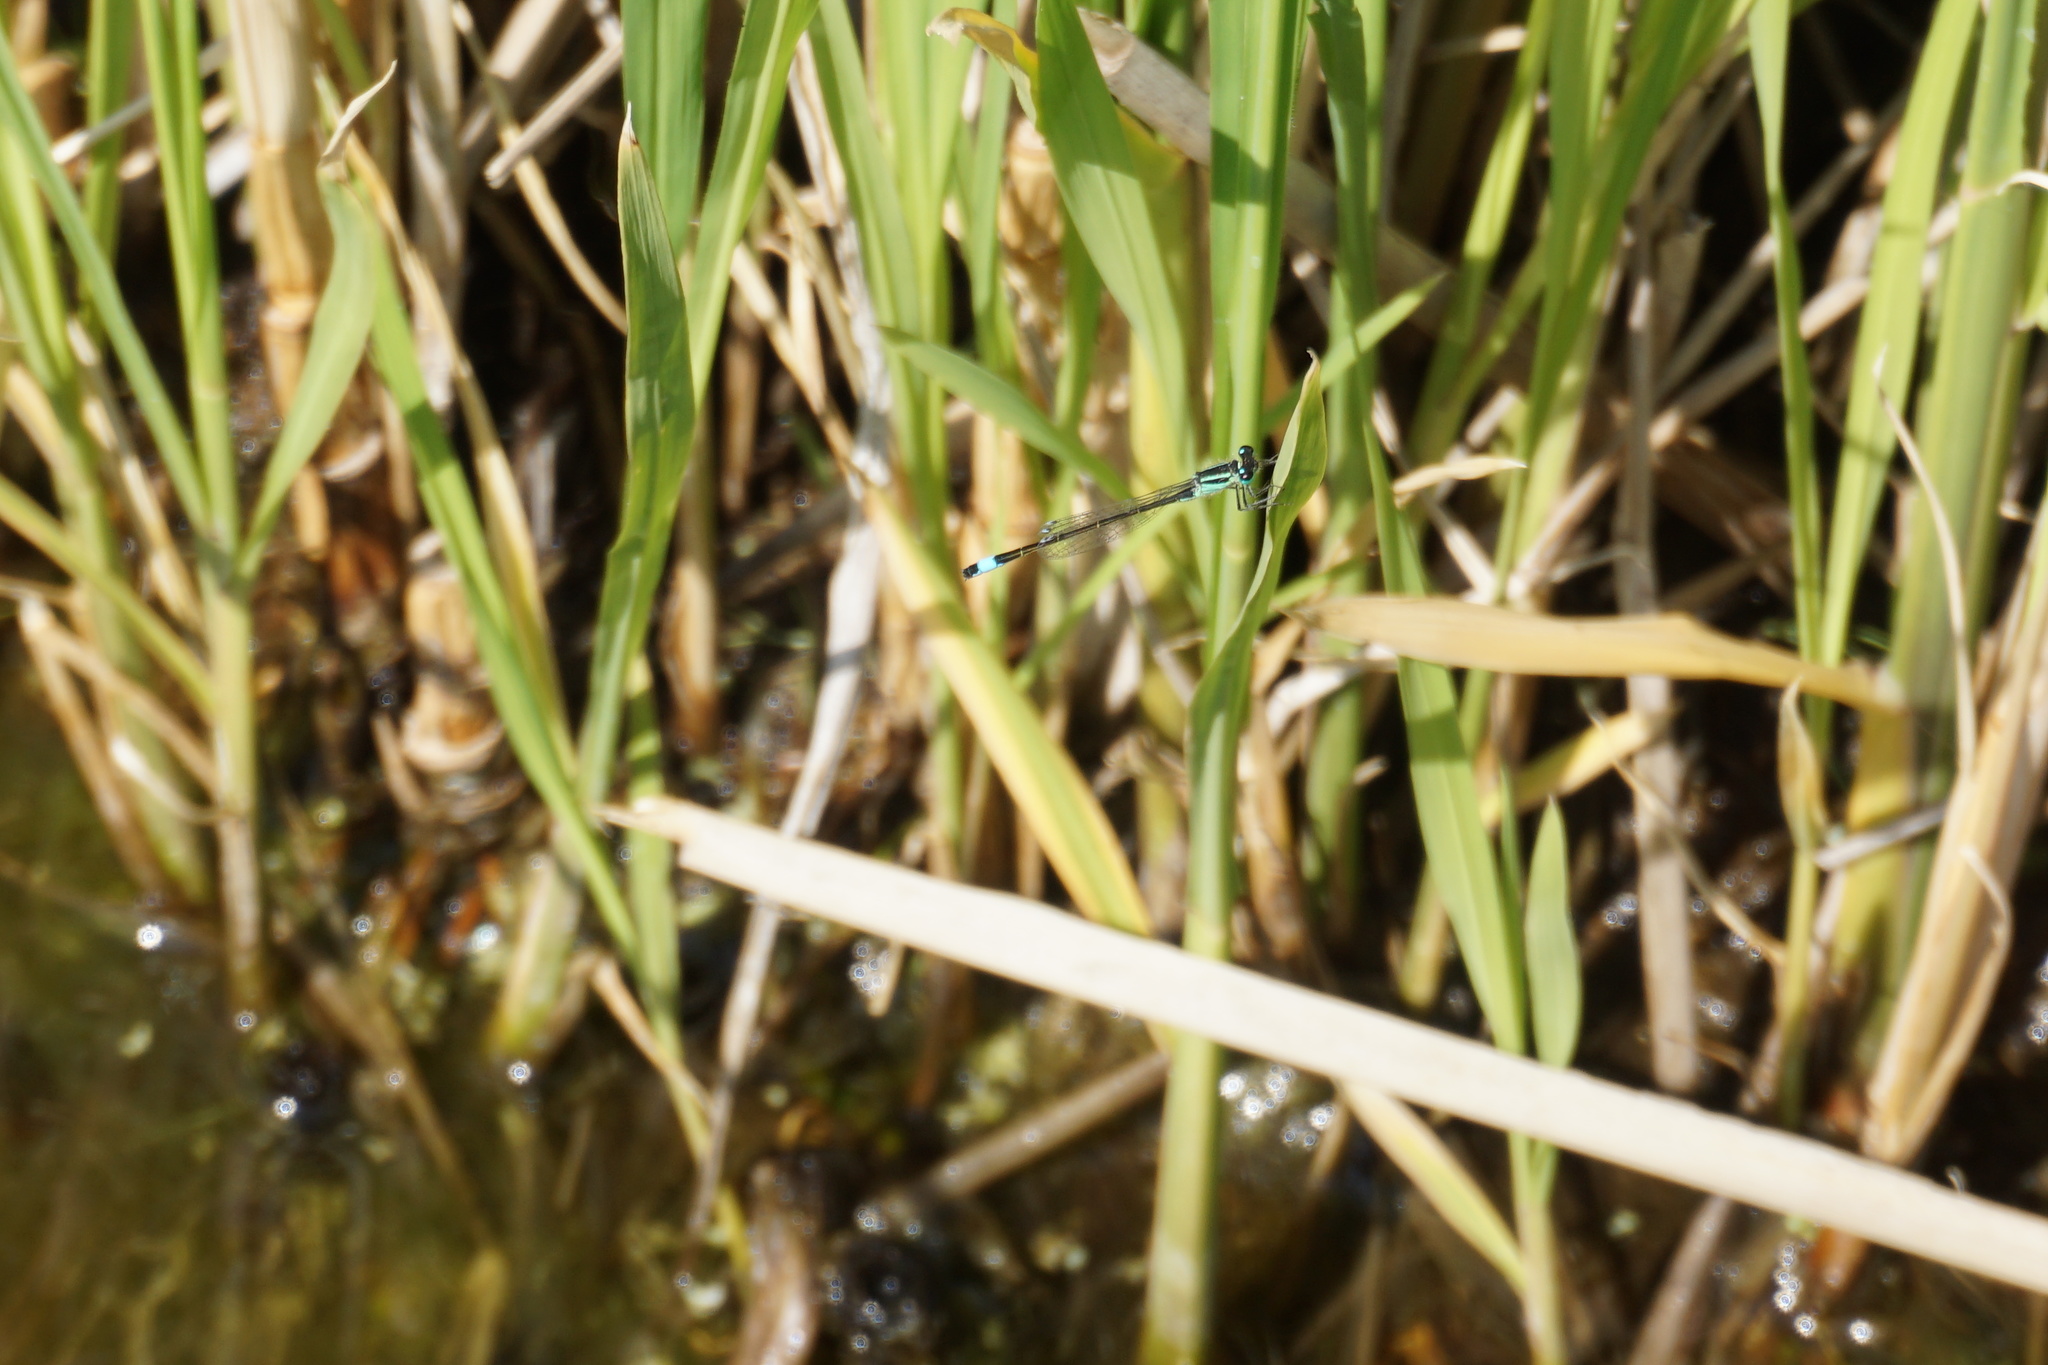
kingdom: Animalia
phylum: Arthropoda
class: Insecta
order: Odonata
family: Coenagrionidae
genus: Ischnura
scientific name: Ischnura elegans
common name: Blue-tailed damselfly
